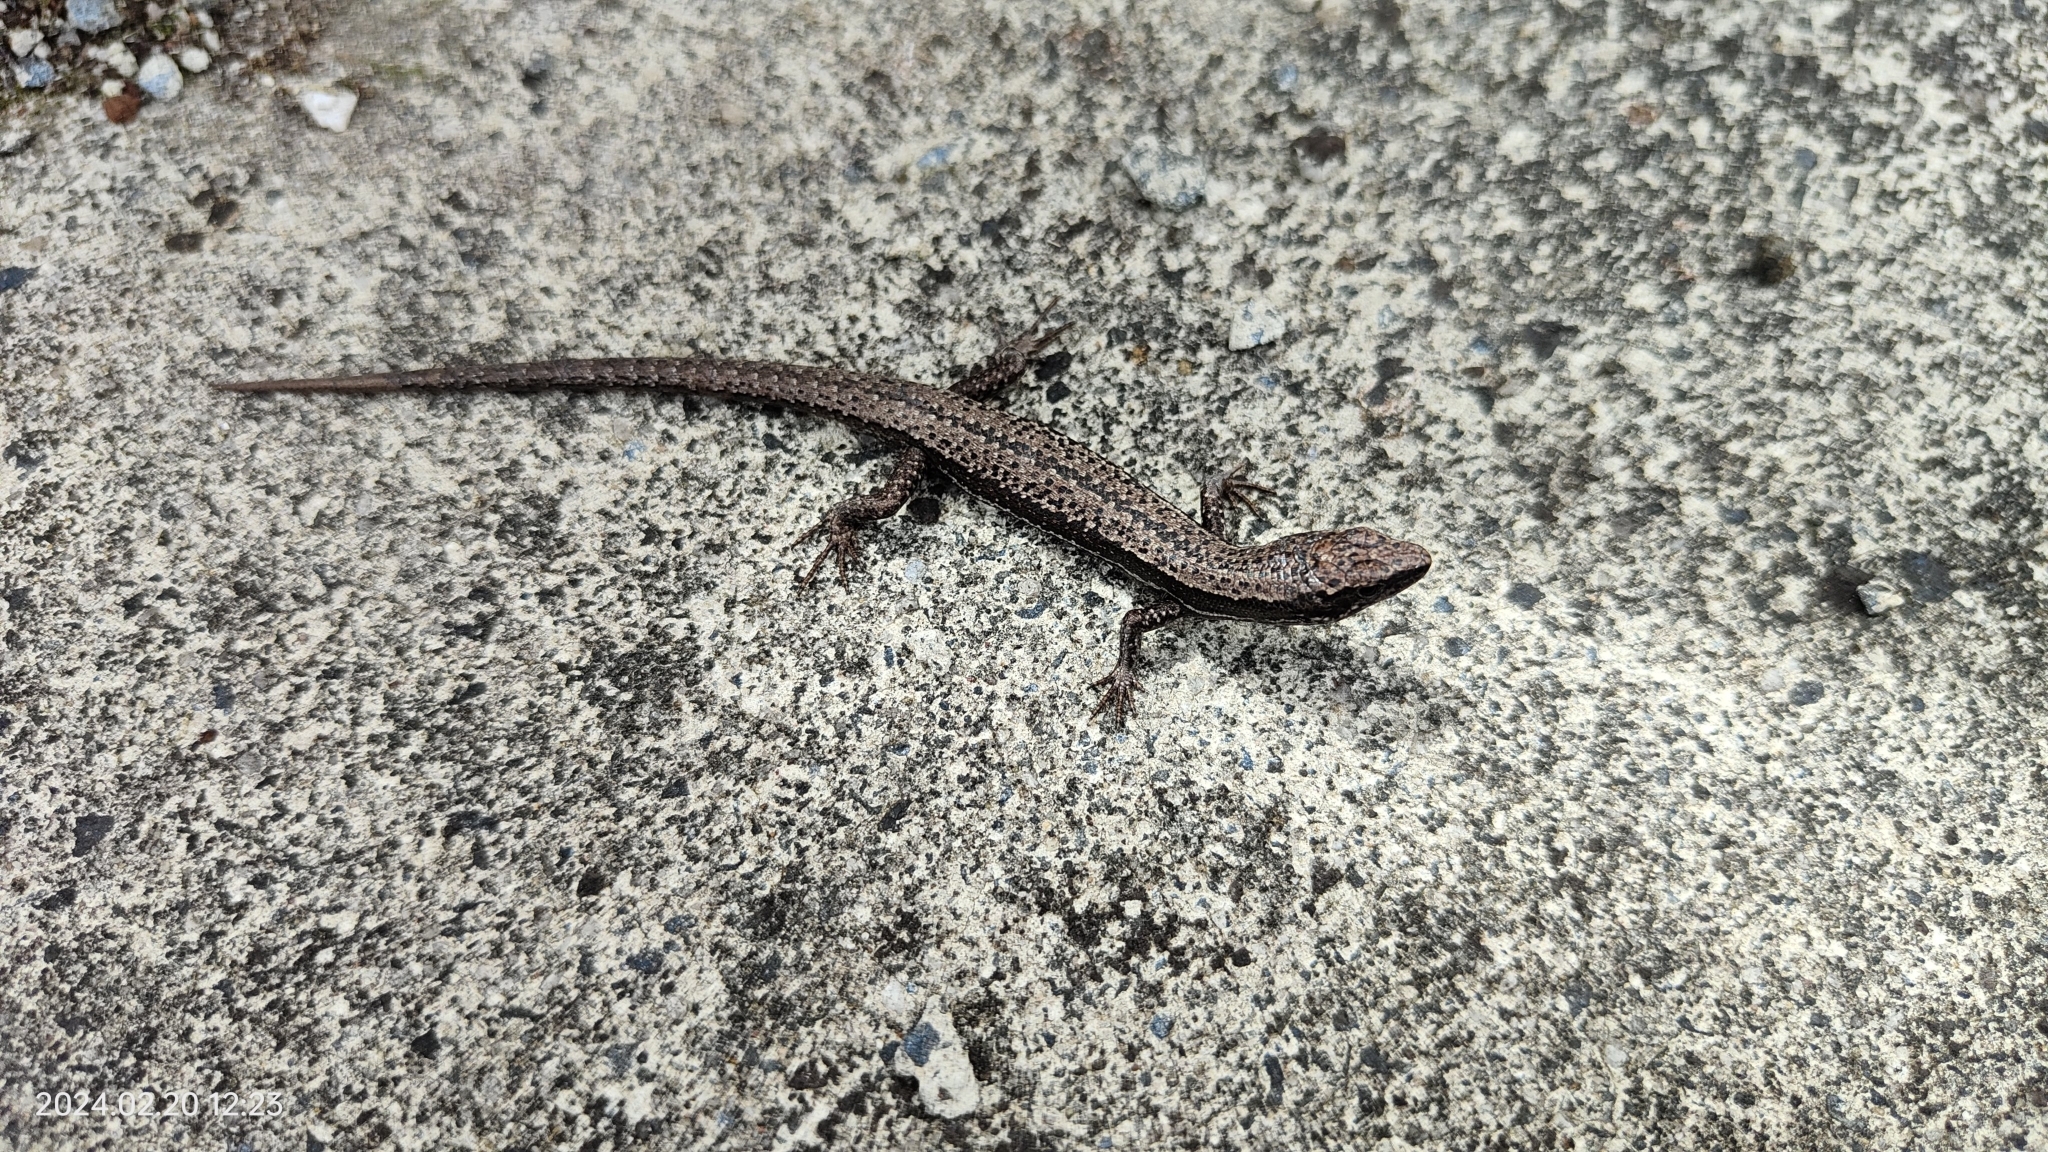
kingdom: Animalia
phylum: Chordata
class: Squamata
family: Scincidae
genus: Carinascincus
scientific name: Carinascincus pretiosus
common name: Agile cool-skink
